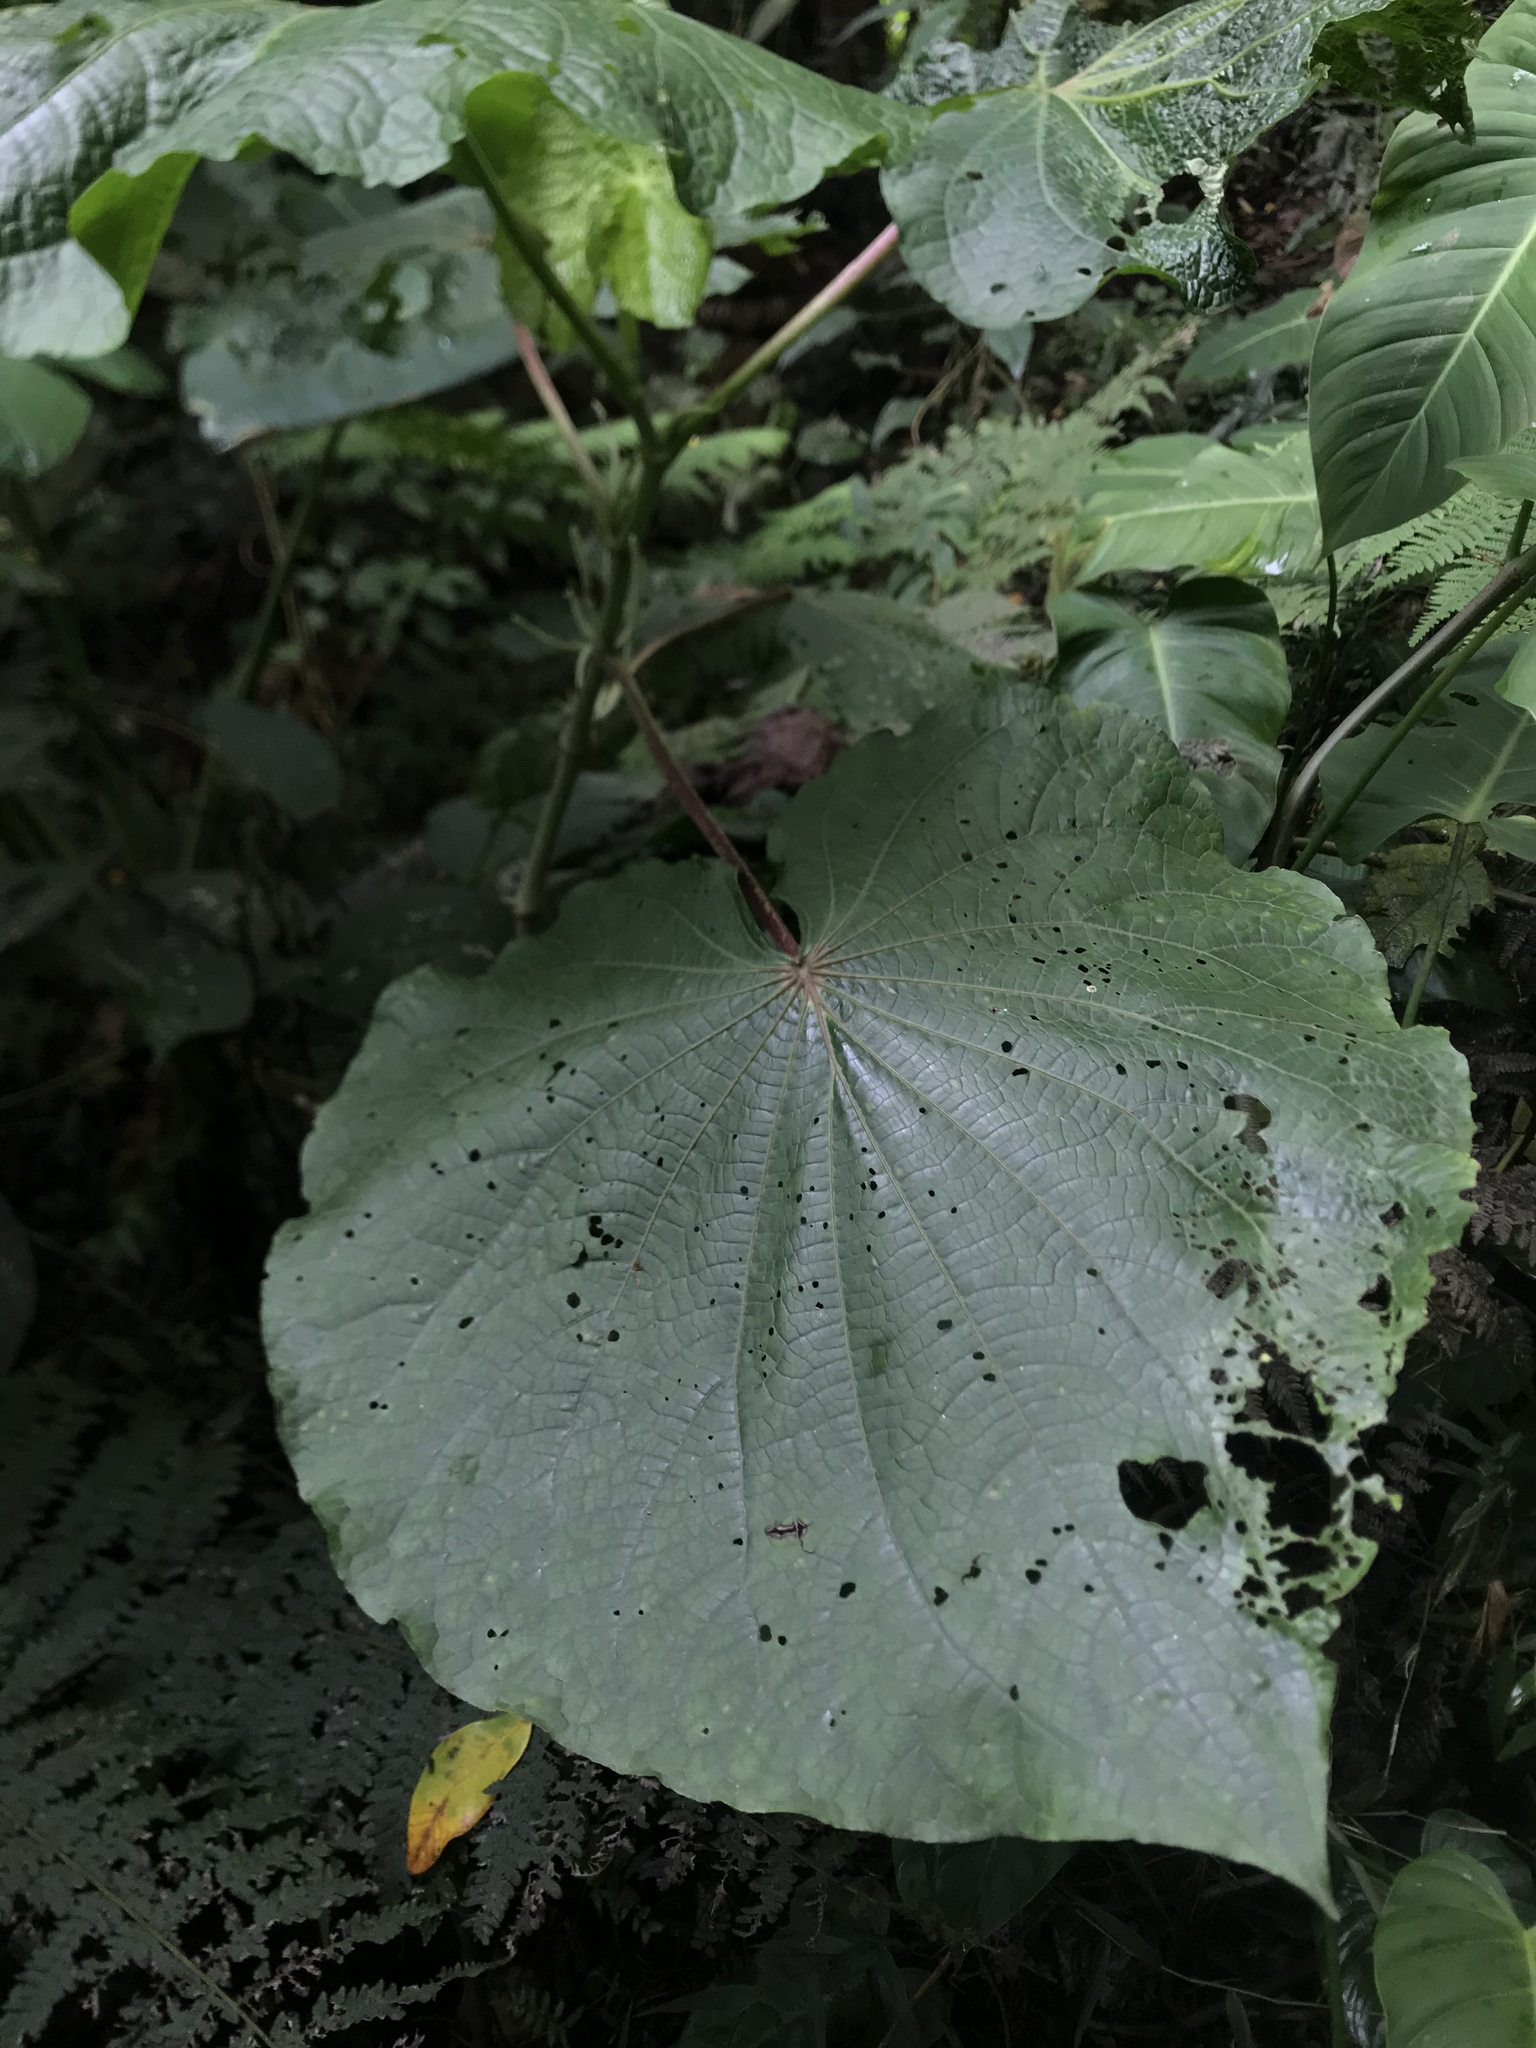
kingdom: Plantae
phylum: Tracheophyta
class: Magnoliopsida
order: Piperales
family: Piperaceae
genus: Piper
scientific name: Piper umbellatum
